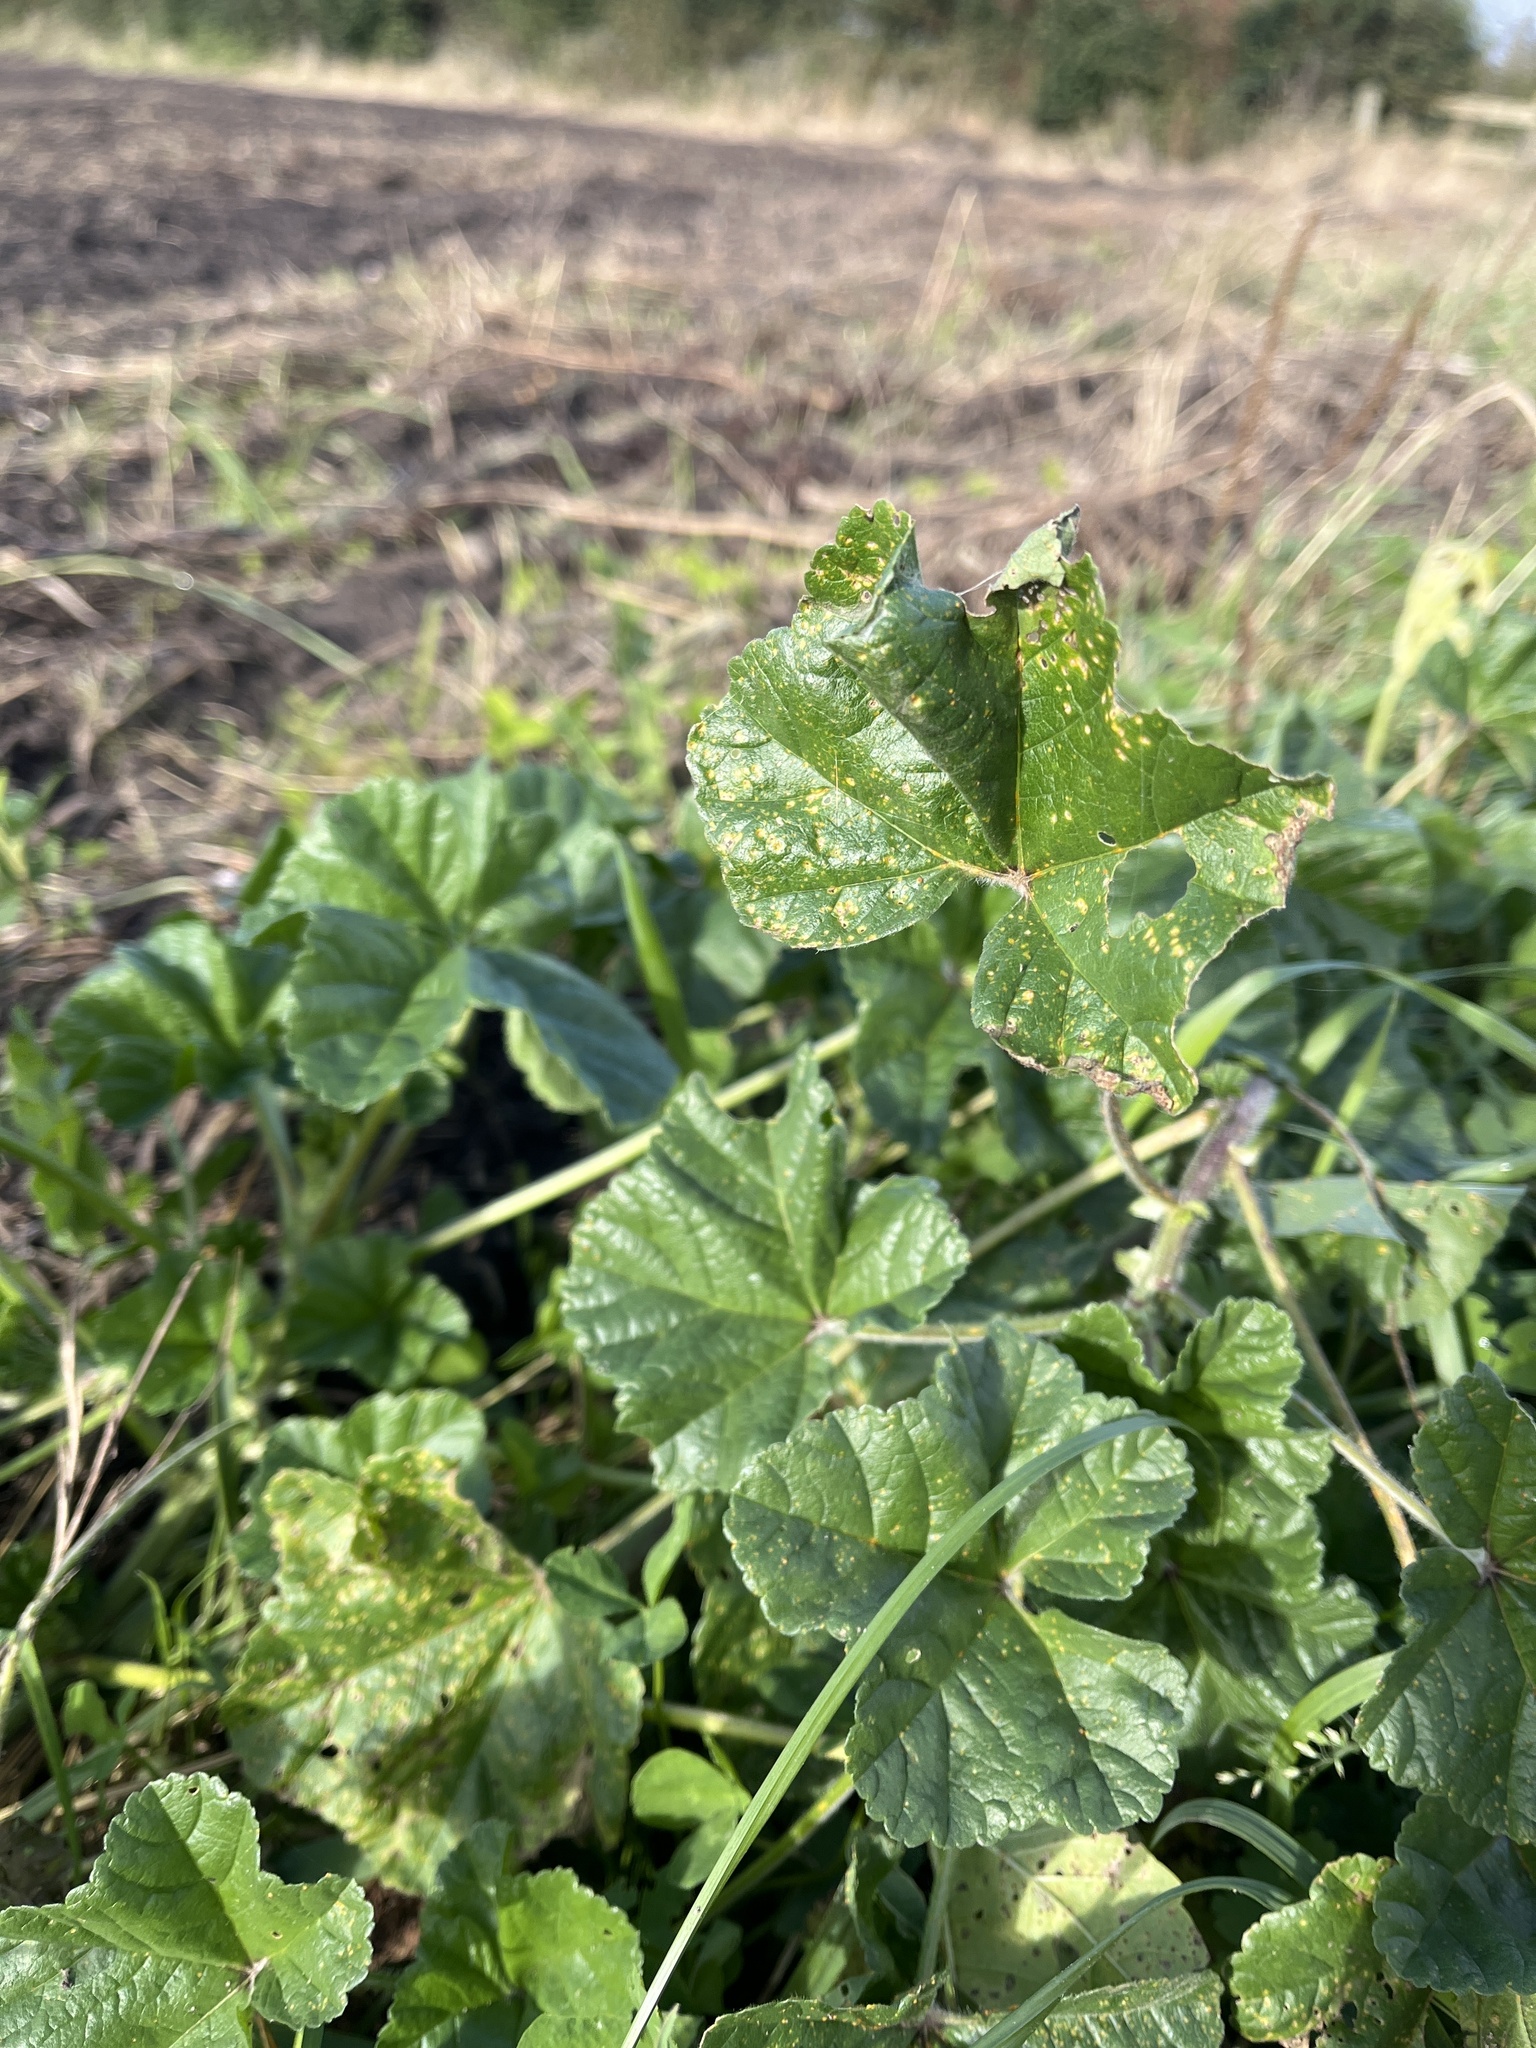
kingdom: Plantae
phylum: Tracheophyta
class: Magnoliopsida
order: Malvales
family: Malvaceae
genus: Malva
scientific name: Malva sylvestris
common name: Common mallow
